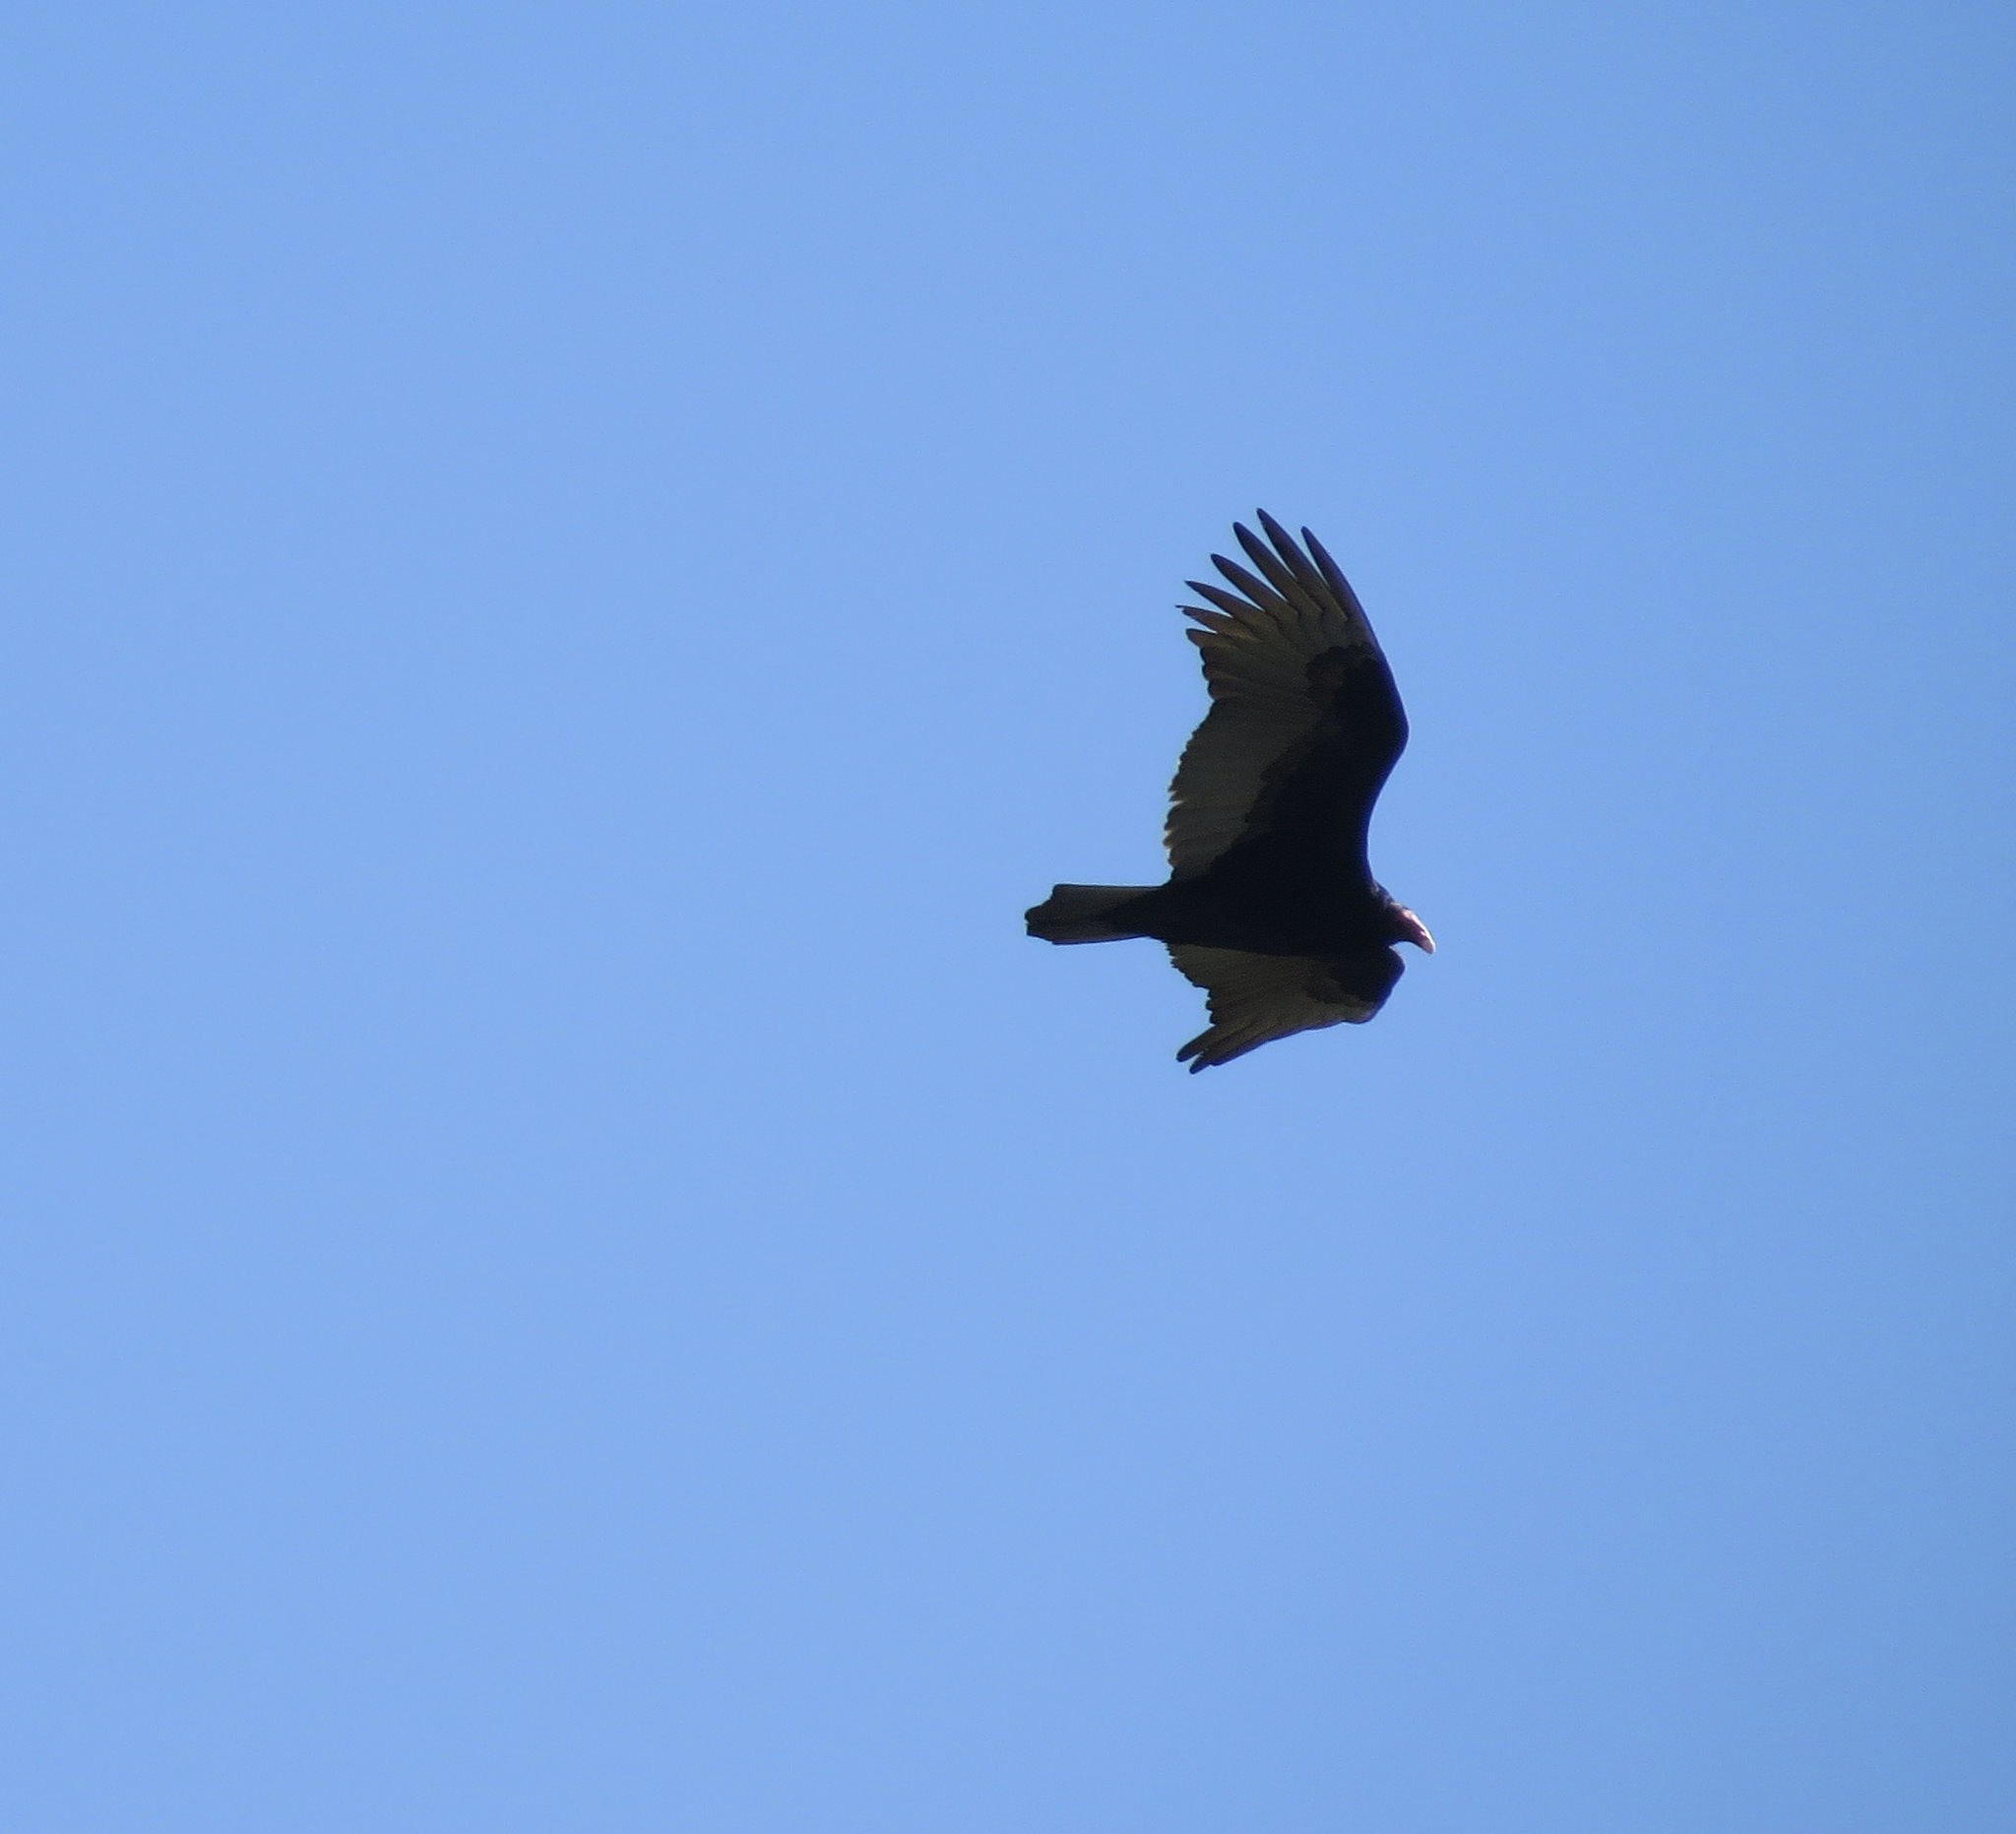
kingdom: Animalia
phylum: Chordata
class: Aves
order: Accipitriformes
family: Cathartidae
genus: Cathartes
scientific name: Cathartes aura
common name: Turkey vulture
